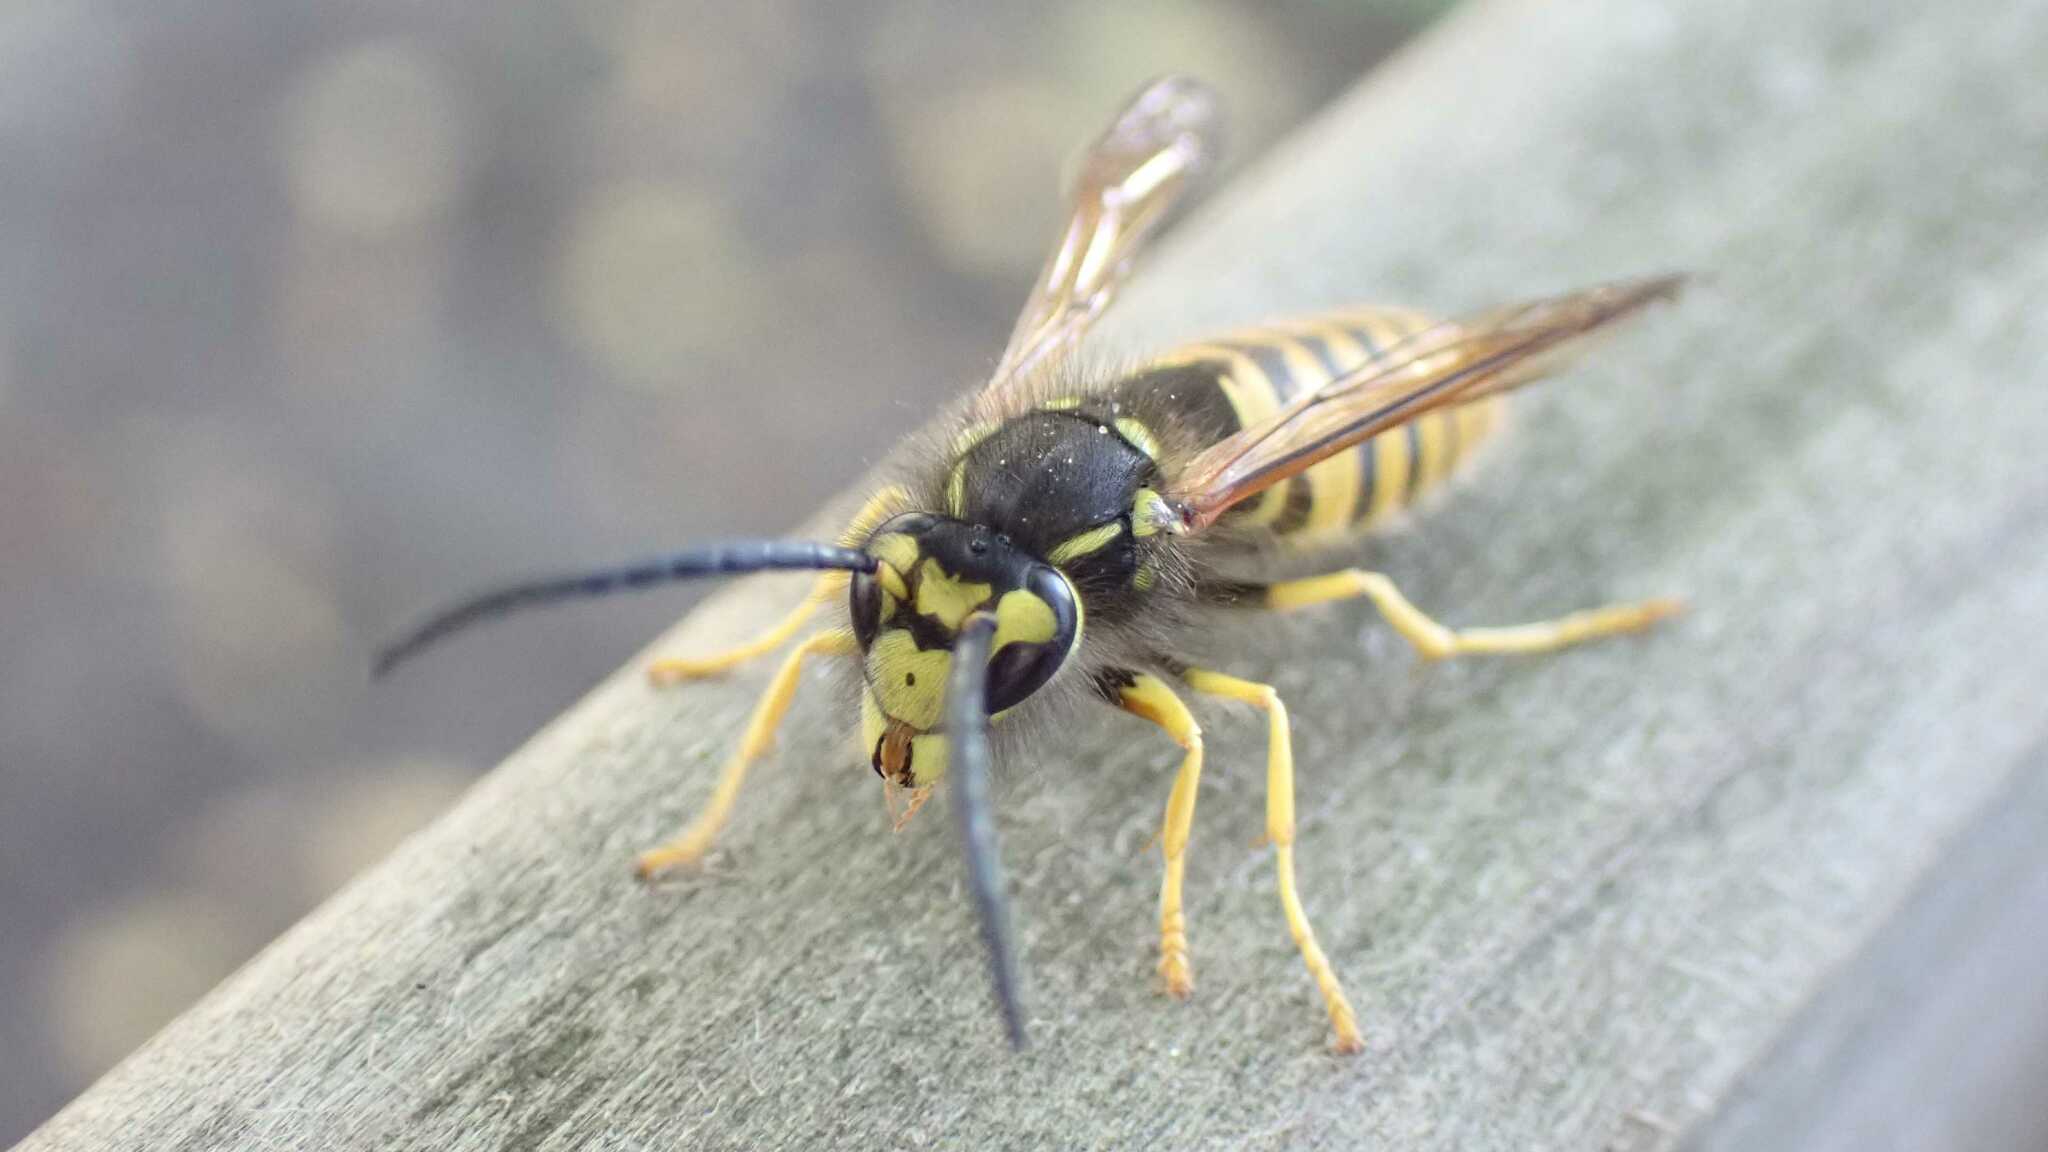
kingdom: Animalia
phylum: Arthropoda
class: Insecta
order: Hymenoptera
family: Vespidae
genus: Vespula
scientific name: Vespula germanica
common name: German wasp
